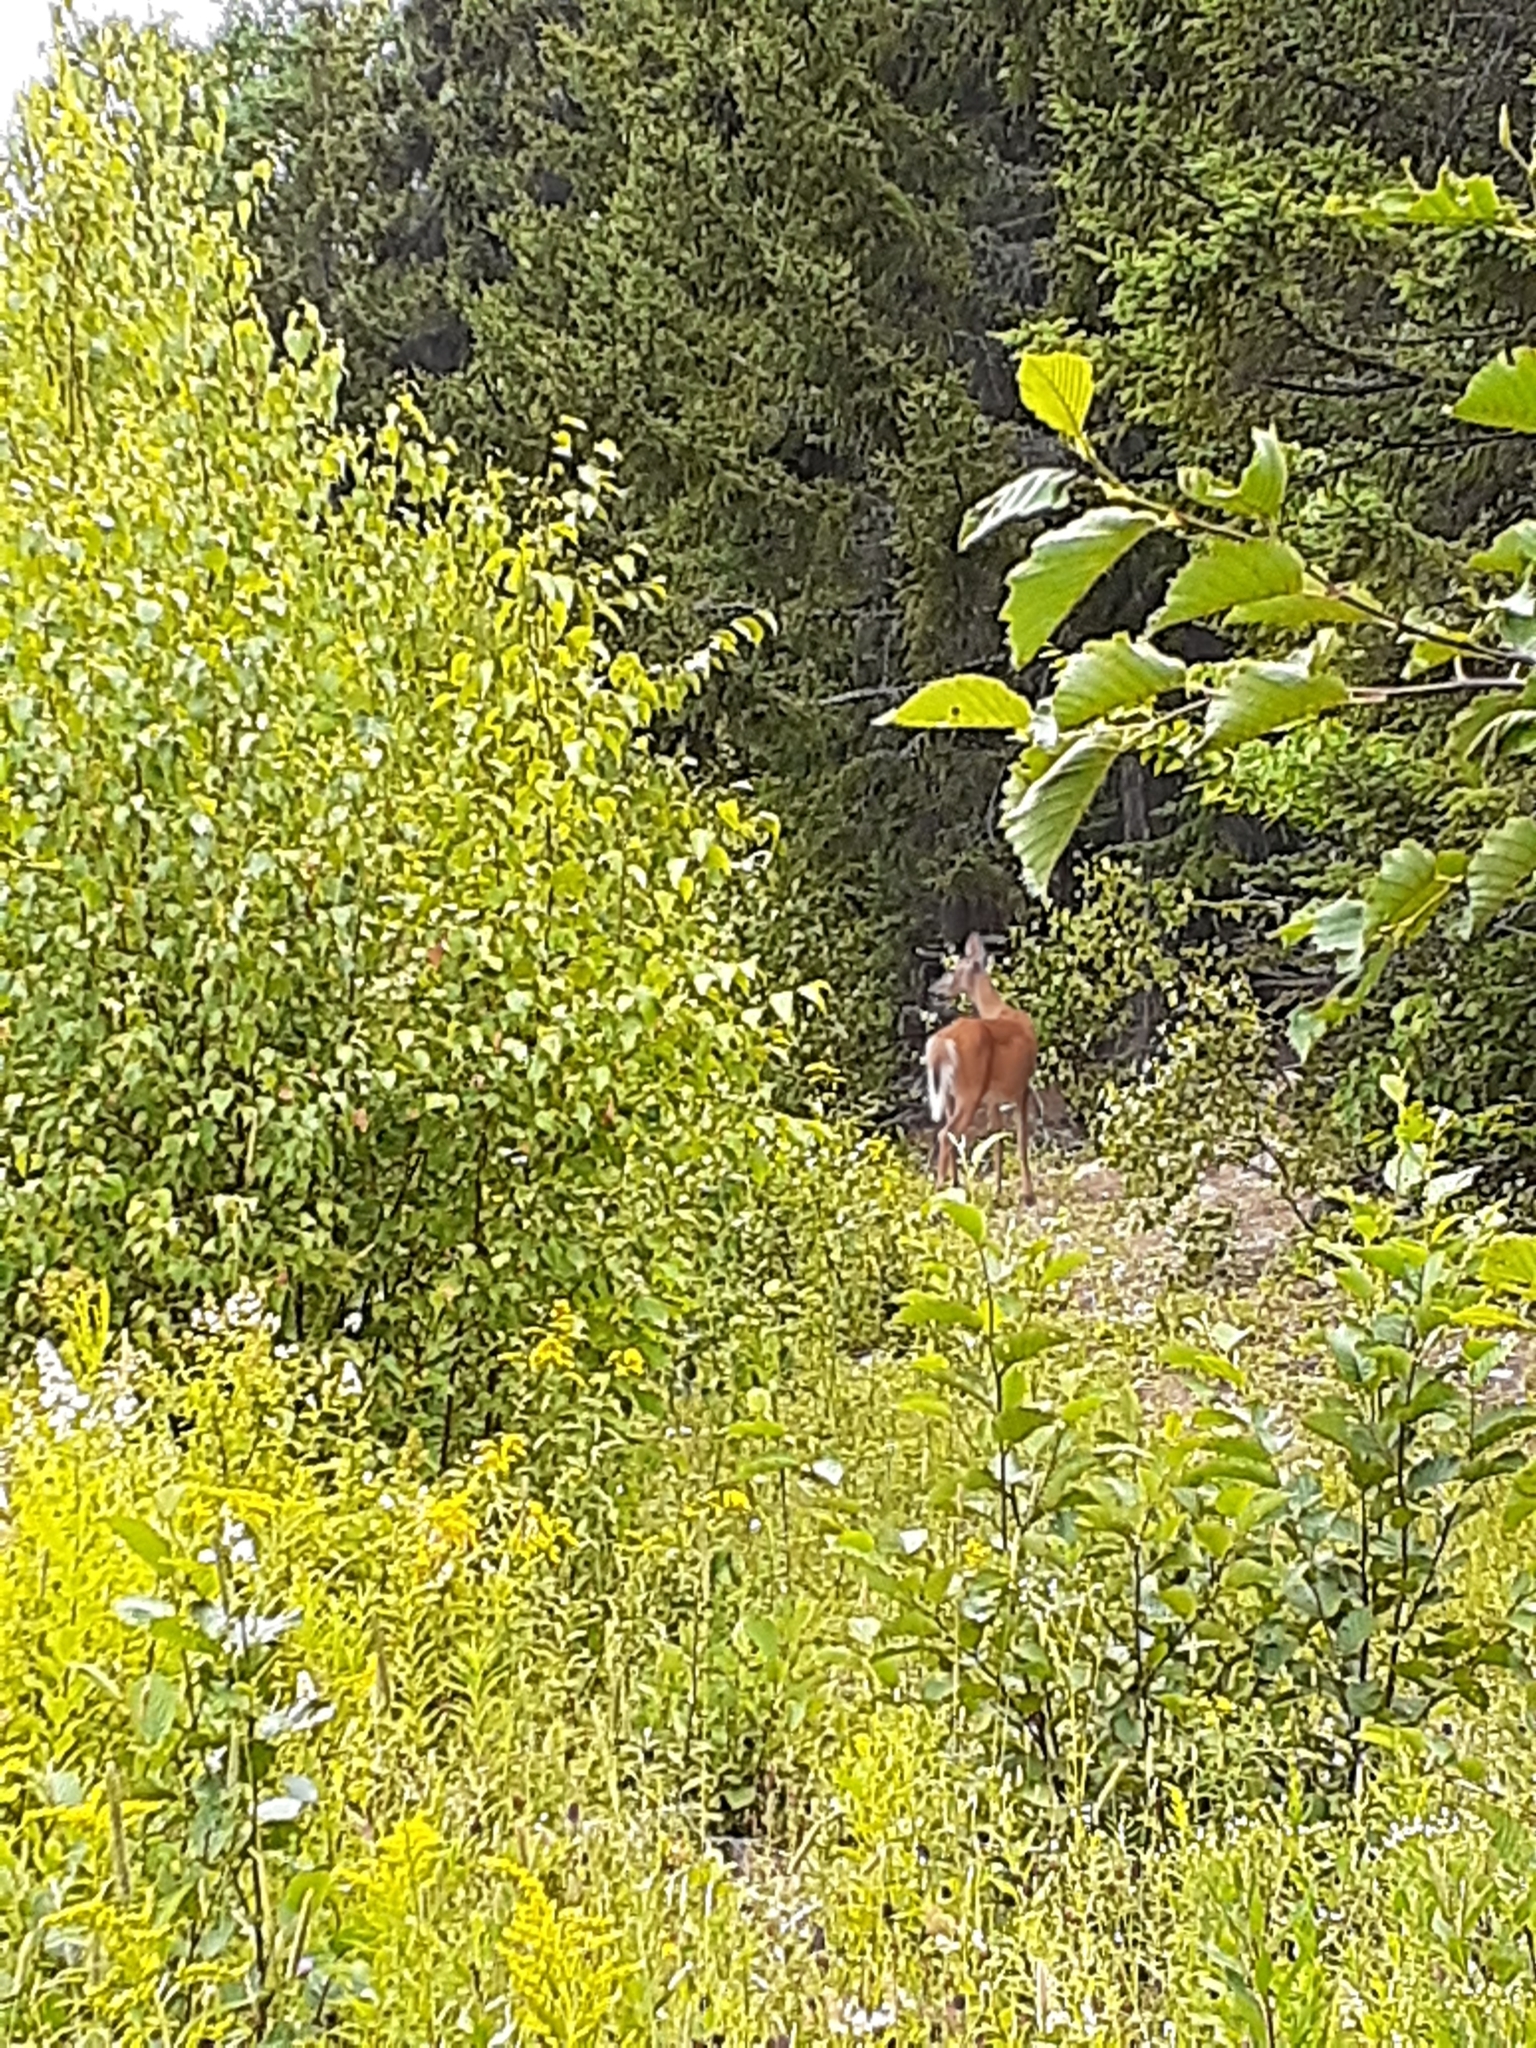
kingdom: Animalia
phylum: Chordata
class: Mammalia
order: Artiodactyla
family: Cervidae
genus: Odocoileus
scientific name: Odocoileus virginianus
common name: White-tailed deer
